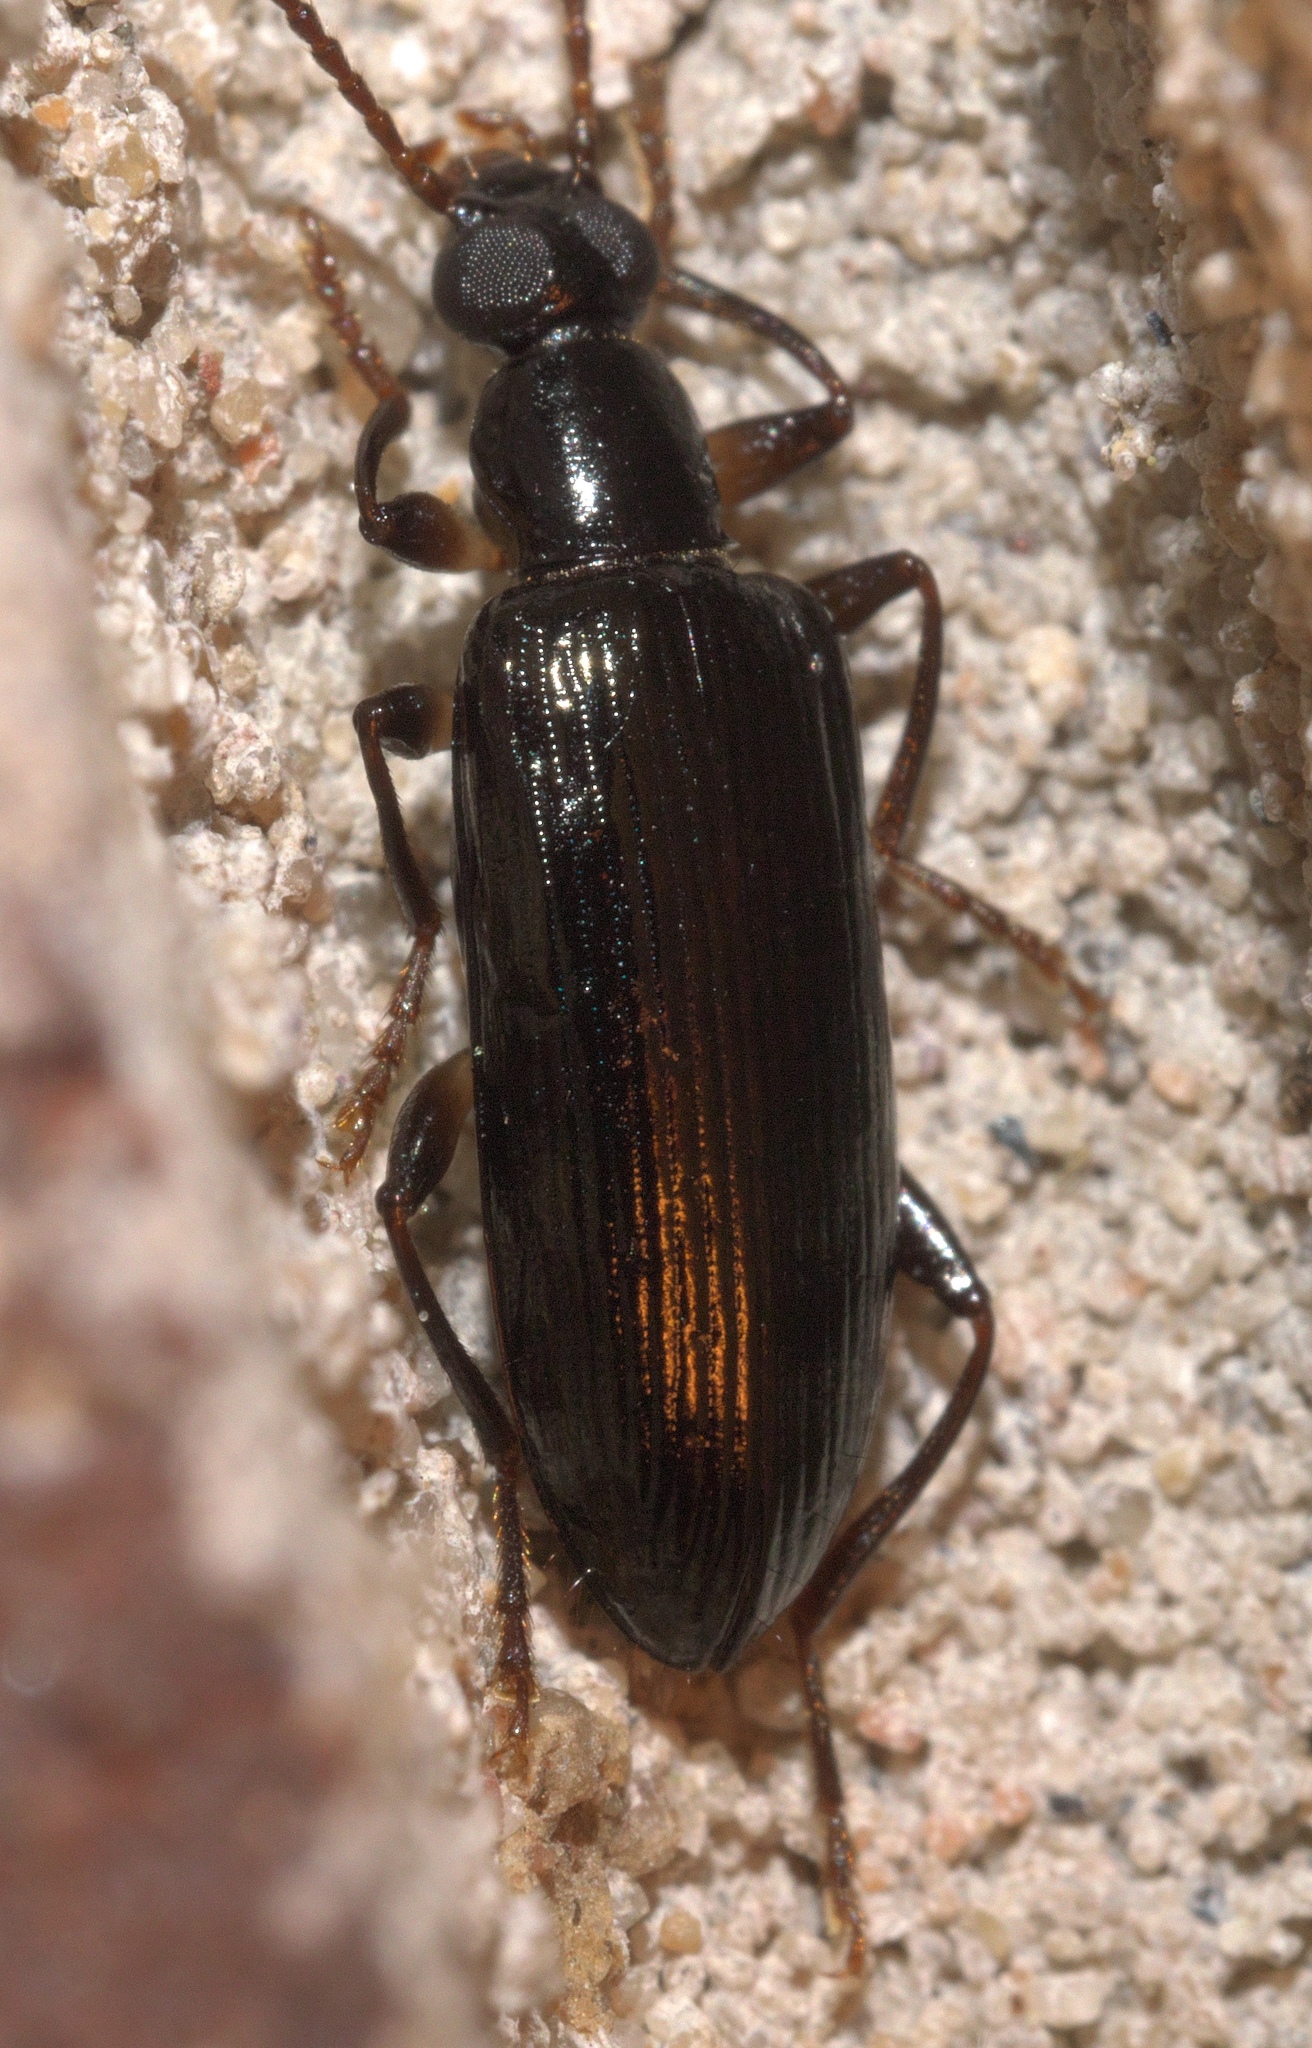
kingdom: Animalia
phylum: Arthropoda
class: Insecta
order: Coleoptera
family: Tenebrionidae
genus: Statira
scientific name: Statira basalis
